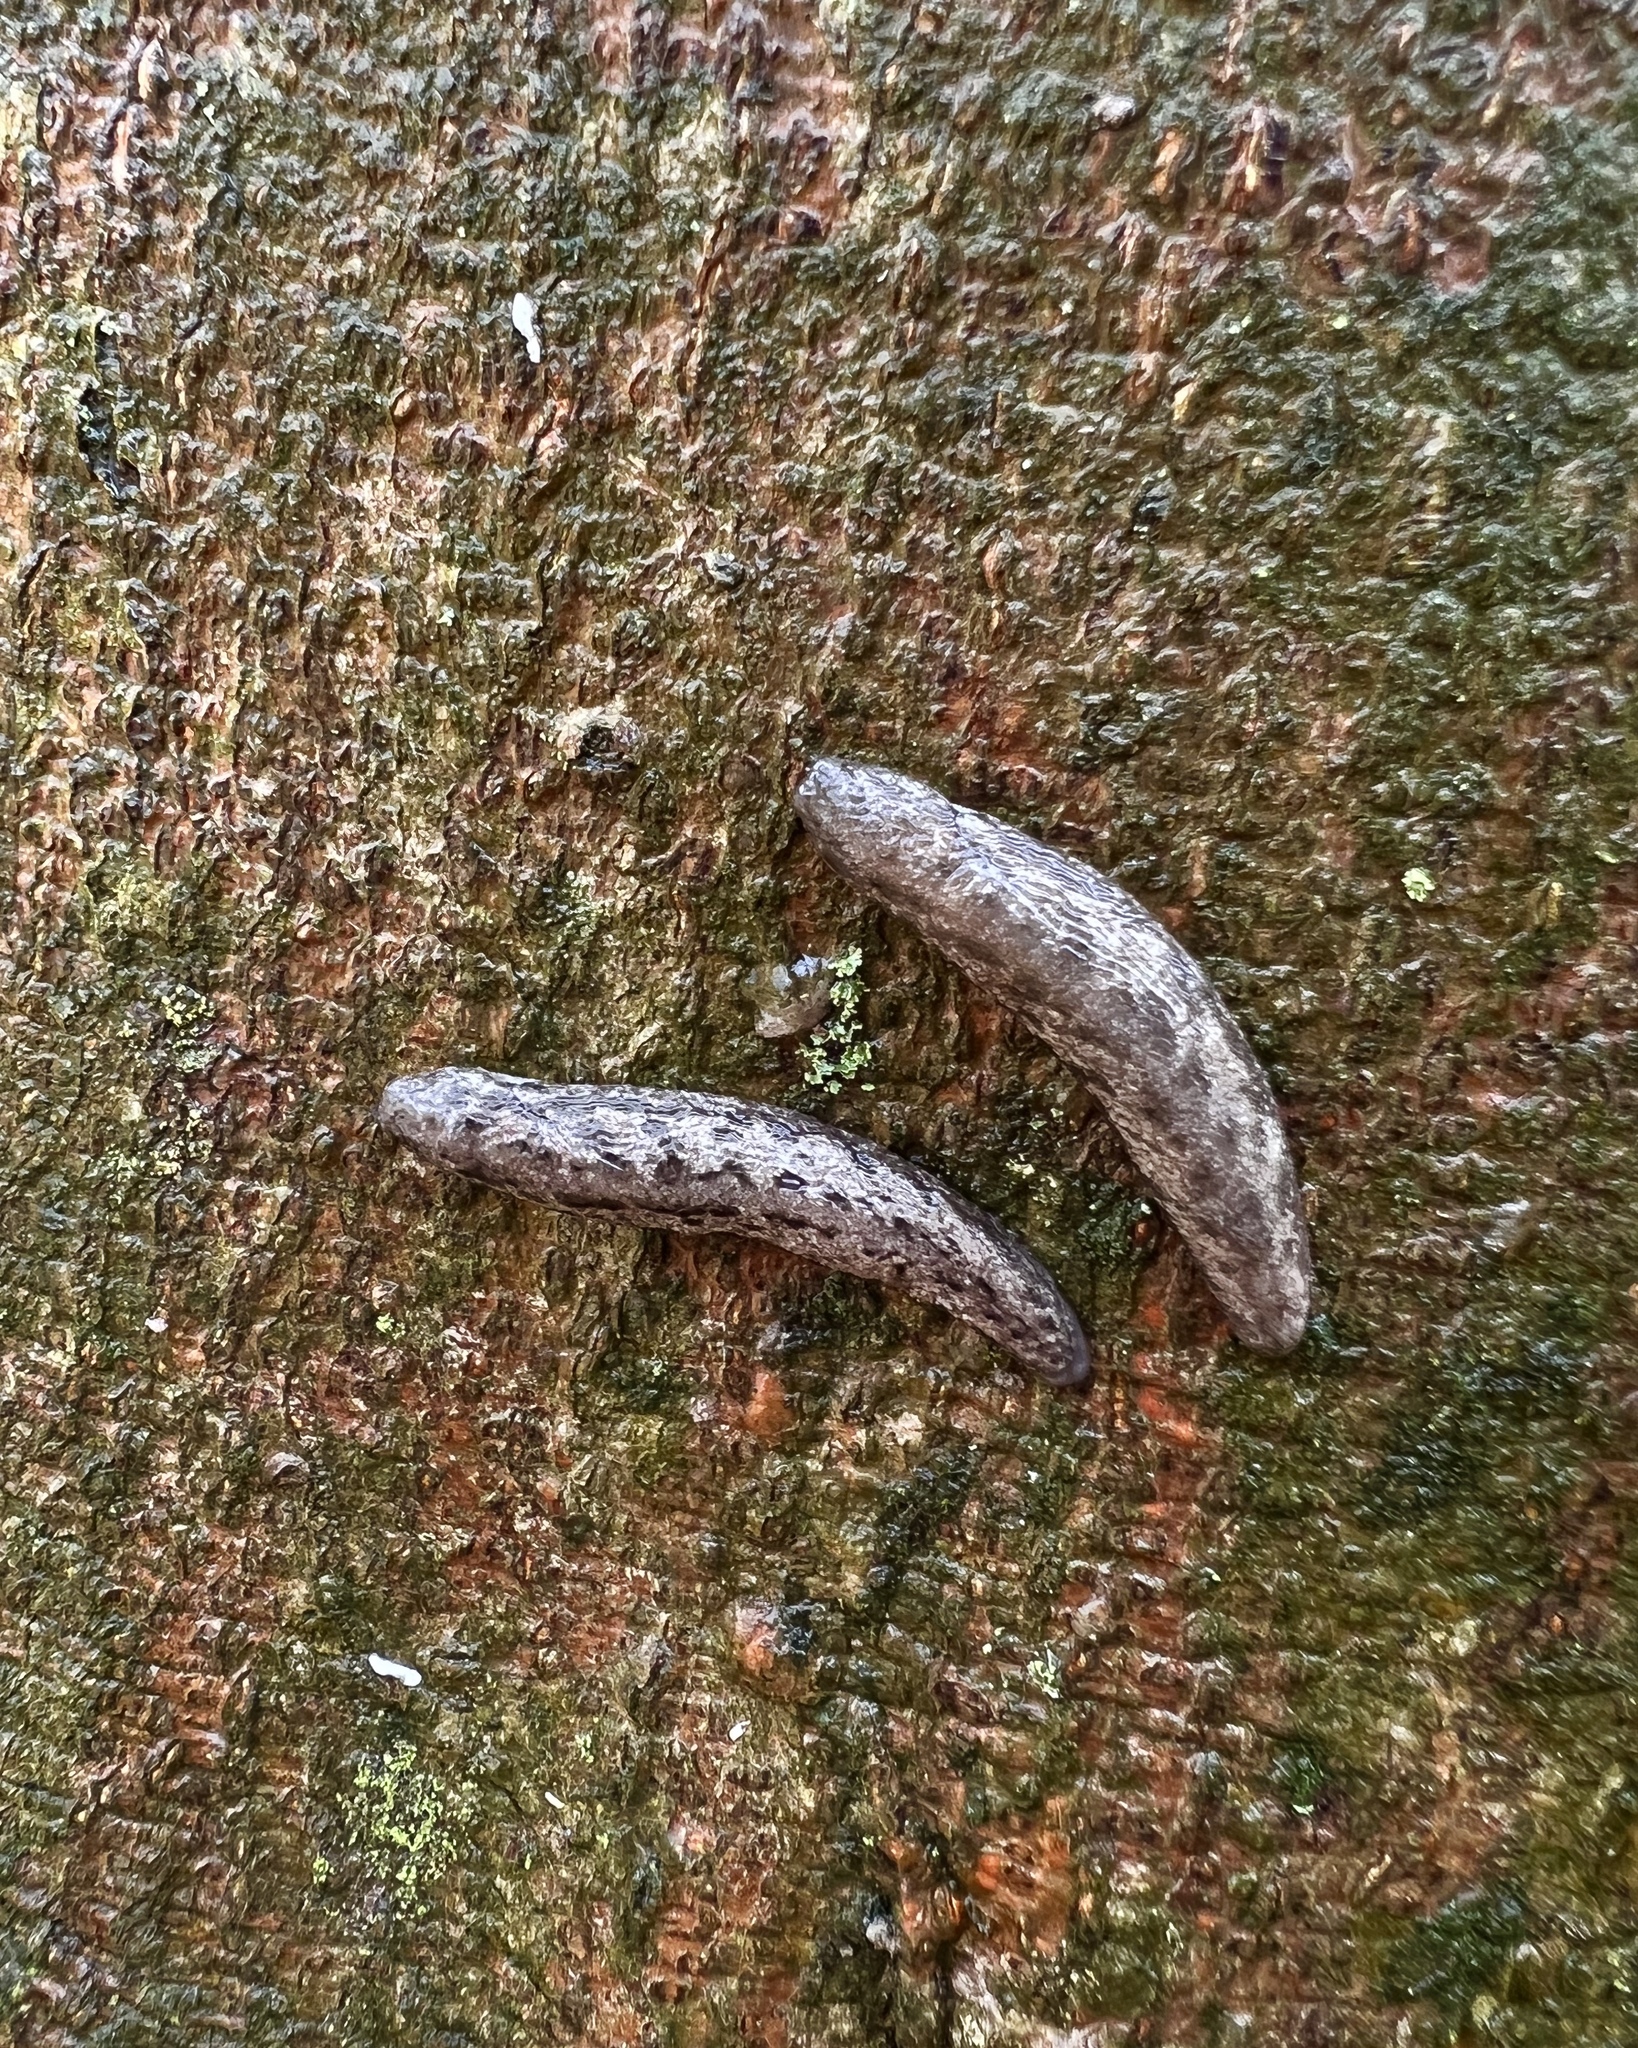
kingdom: Animalia
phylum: Mollusca
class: Gastropoda
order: Stylommatophora
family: Philomycidae
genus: Megapallifera
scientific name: Megapallifera mutabilis
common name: Changeable mantleslug
